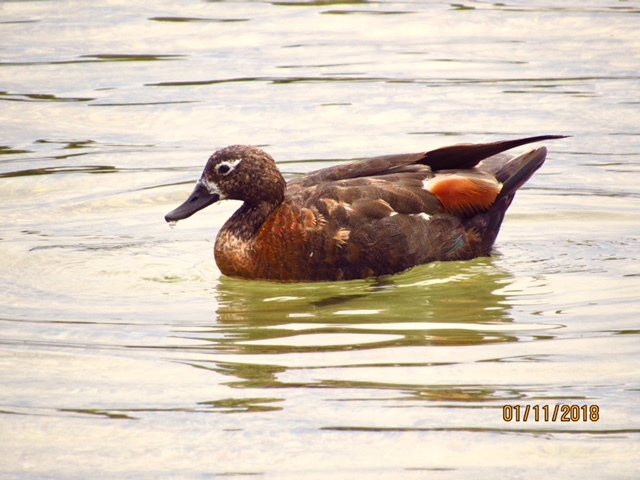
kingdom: Animalia
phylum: Chordata
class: Aves
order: Anseriformes
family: Anatidae
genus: Tadorna
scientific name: Tadorna tadornoides
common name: Australian shelduck
